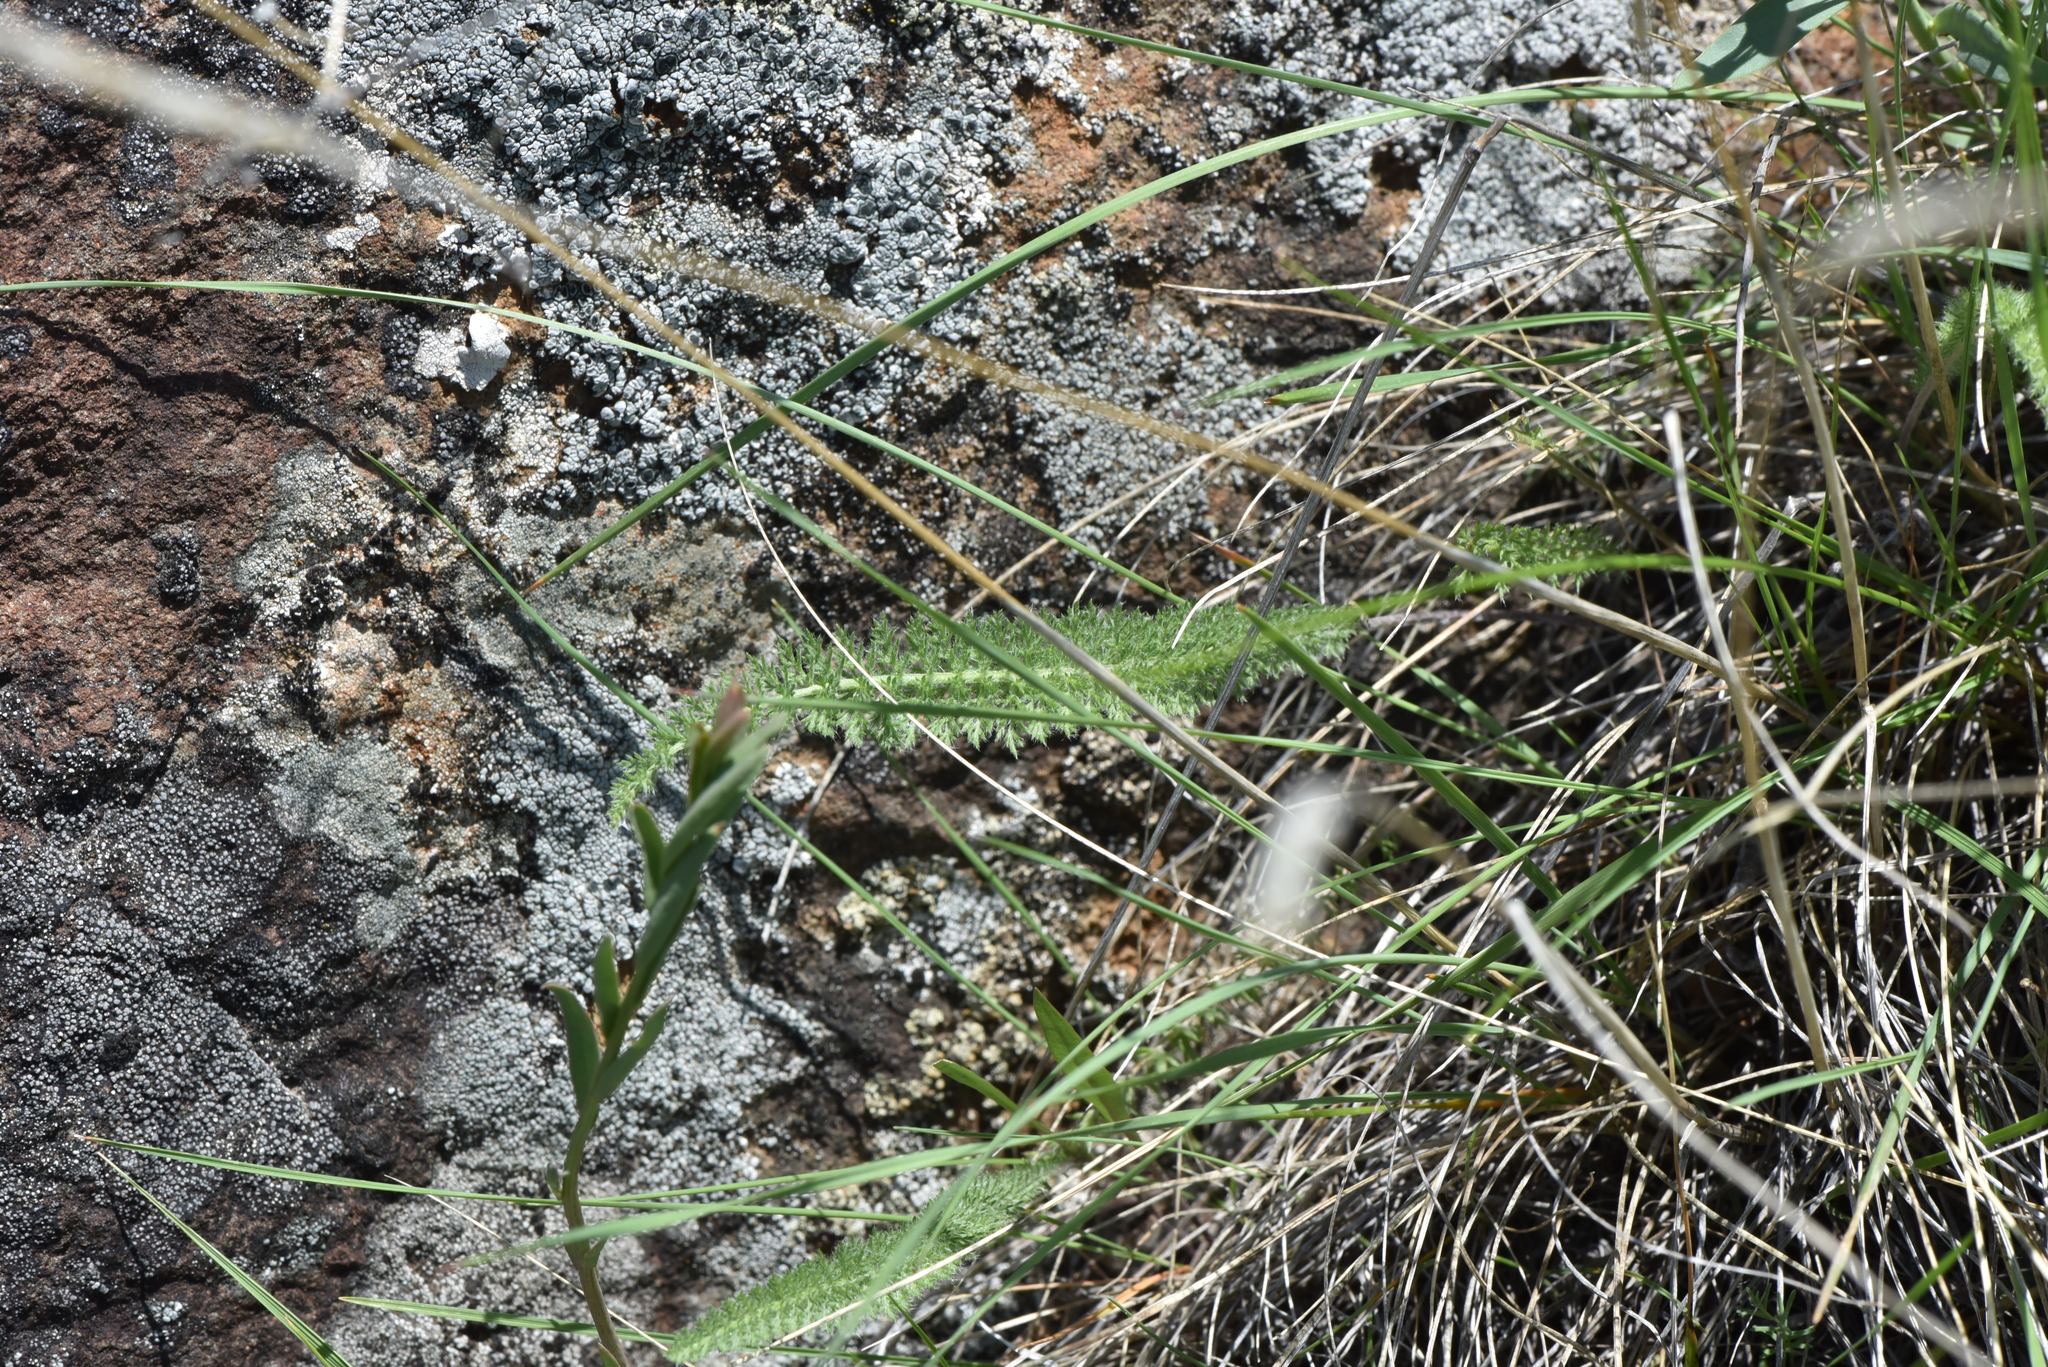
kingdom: Plantae
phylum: Tracheophyta
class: Magnoliopsida
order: Asterales
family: Asteraceae
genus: Achillea
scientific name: Achillea millefolium
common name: Yarrow
